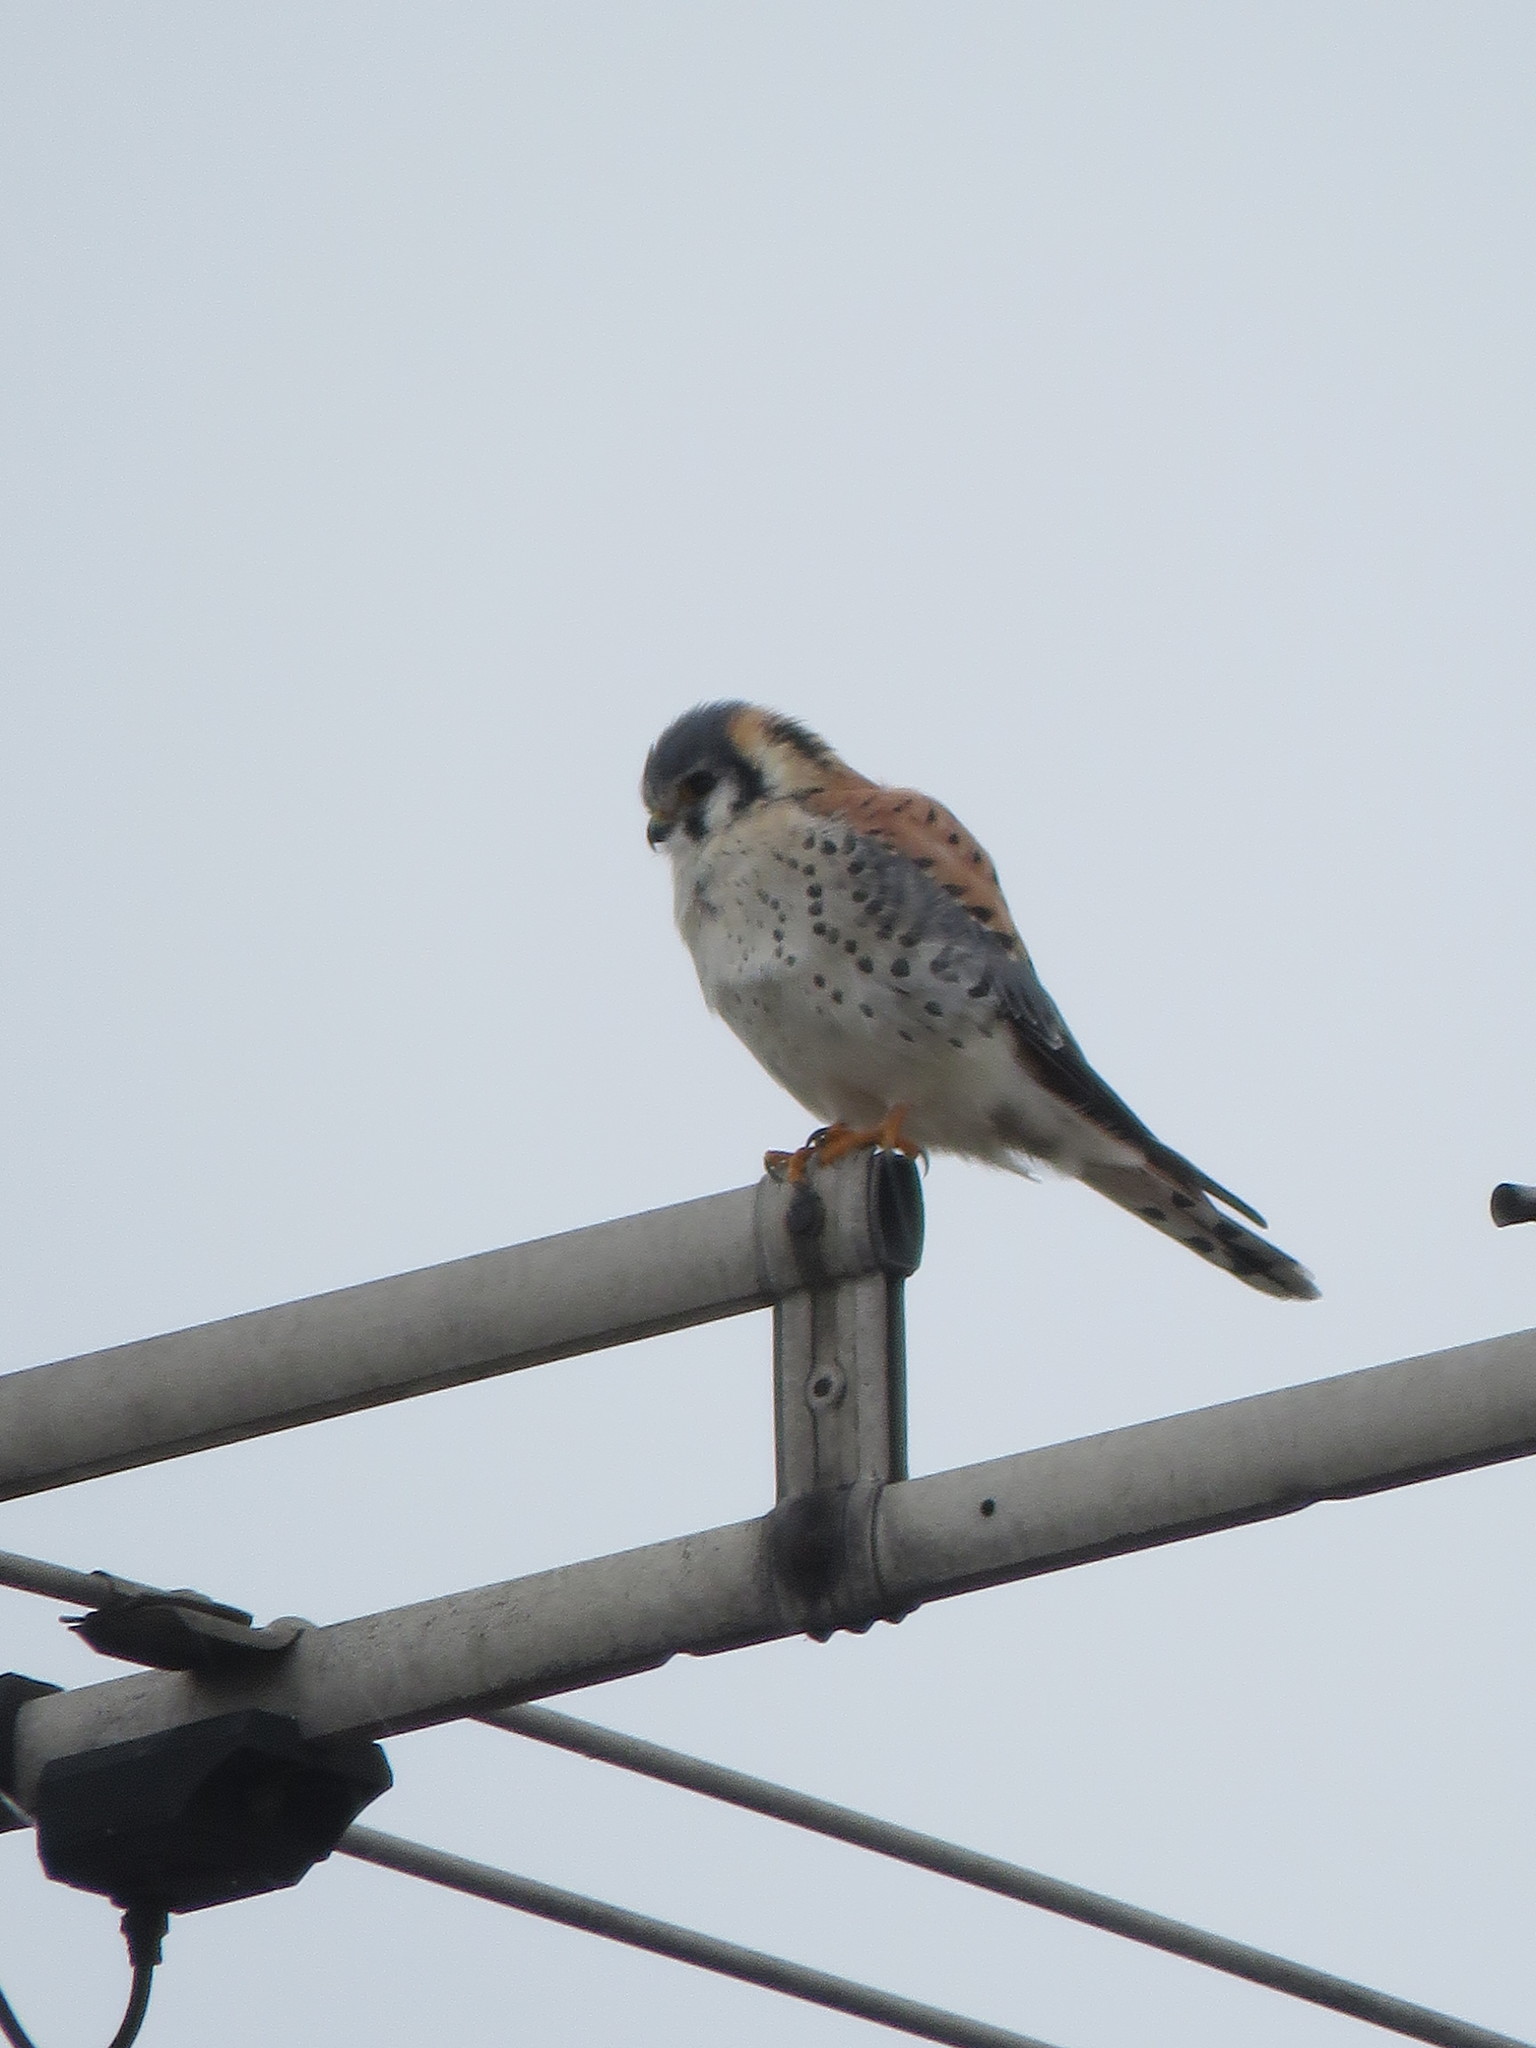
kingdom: Animalia
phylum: Chordata
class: Aves
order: Falconiformes
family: Falconidae
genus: Falco
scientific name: Falco sparverius
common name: American kestrel
